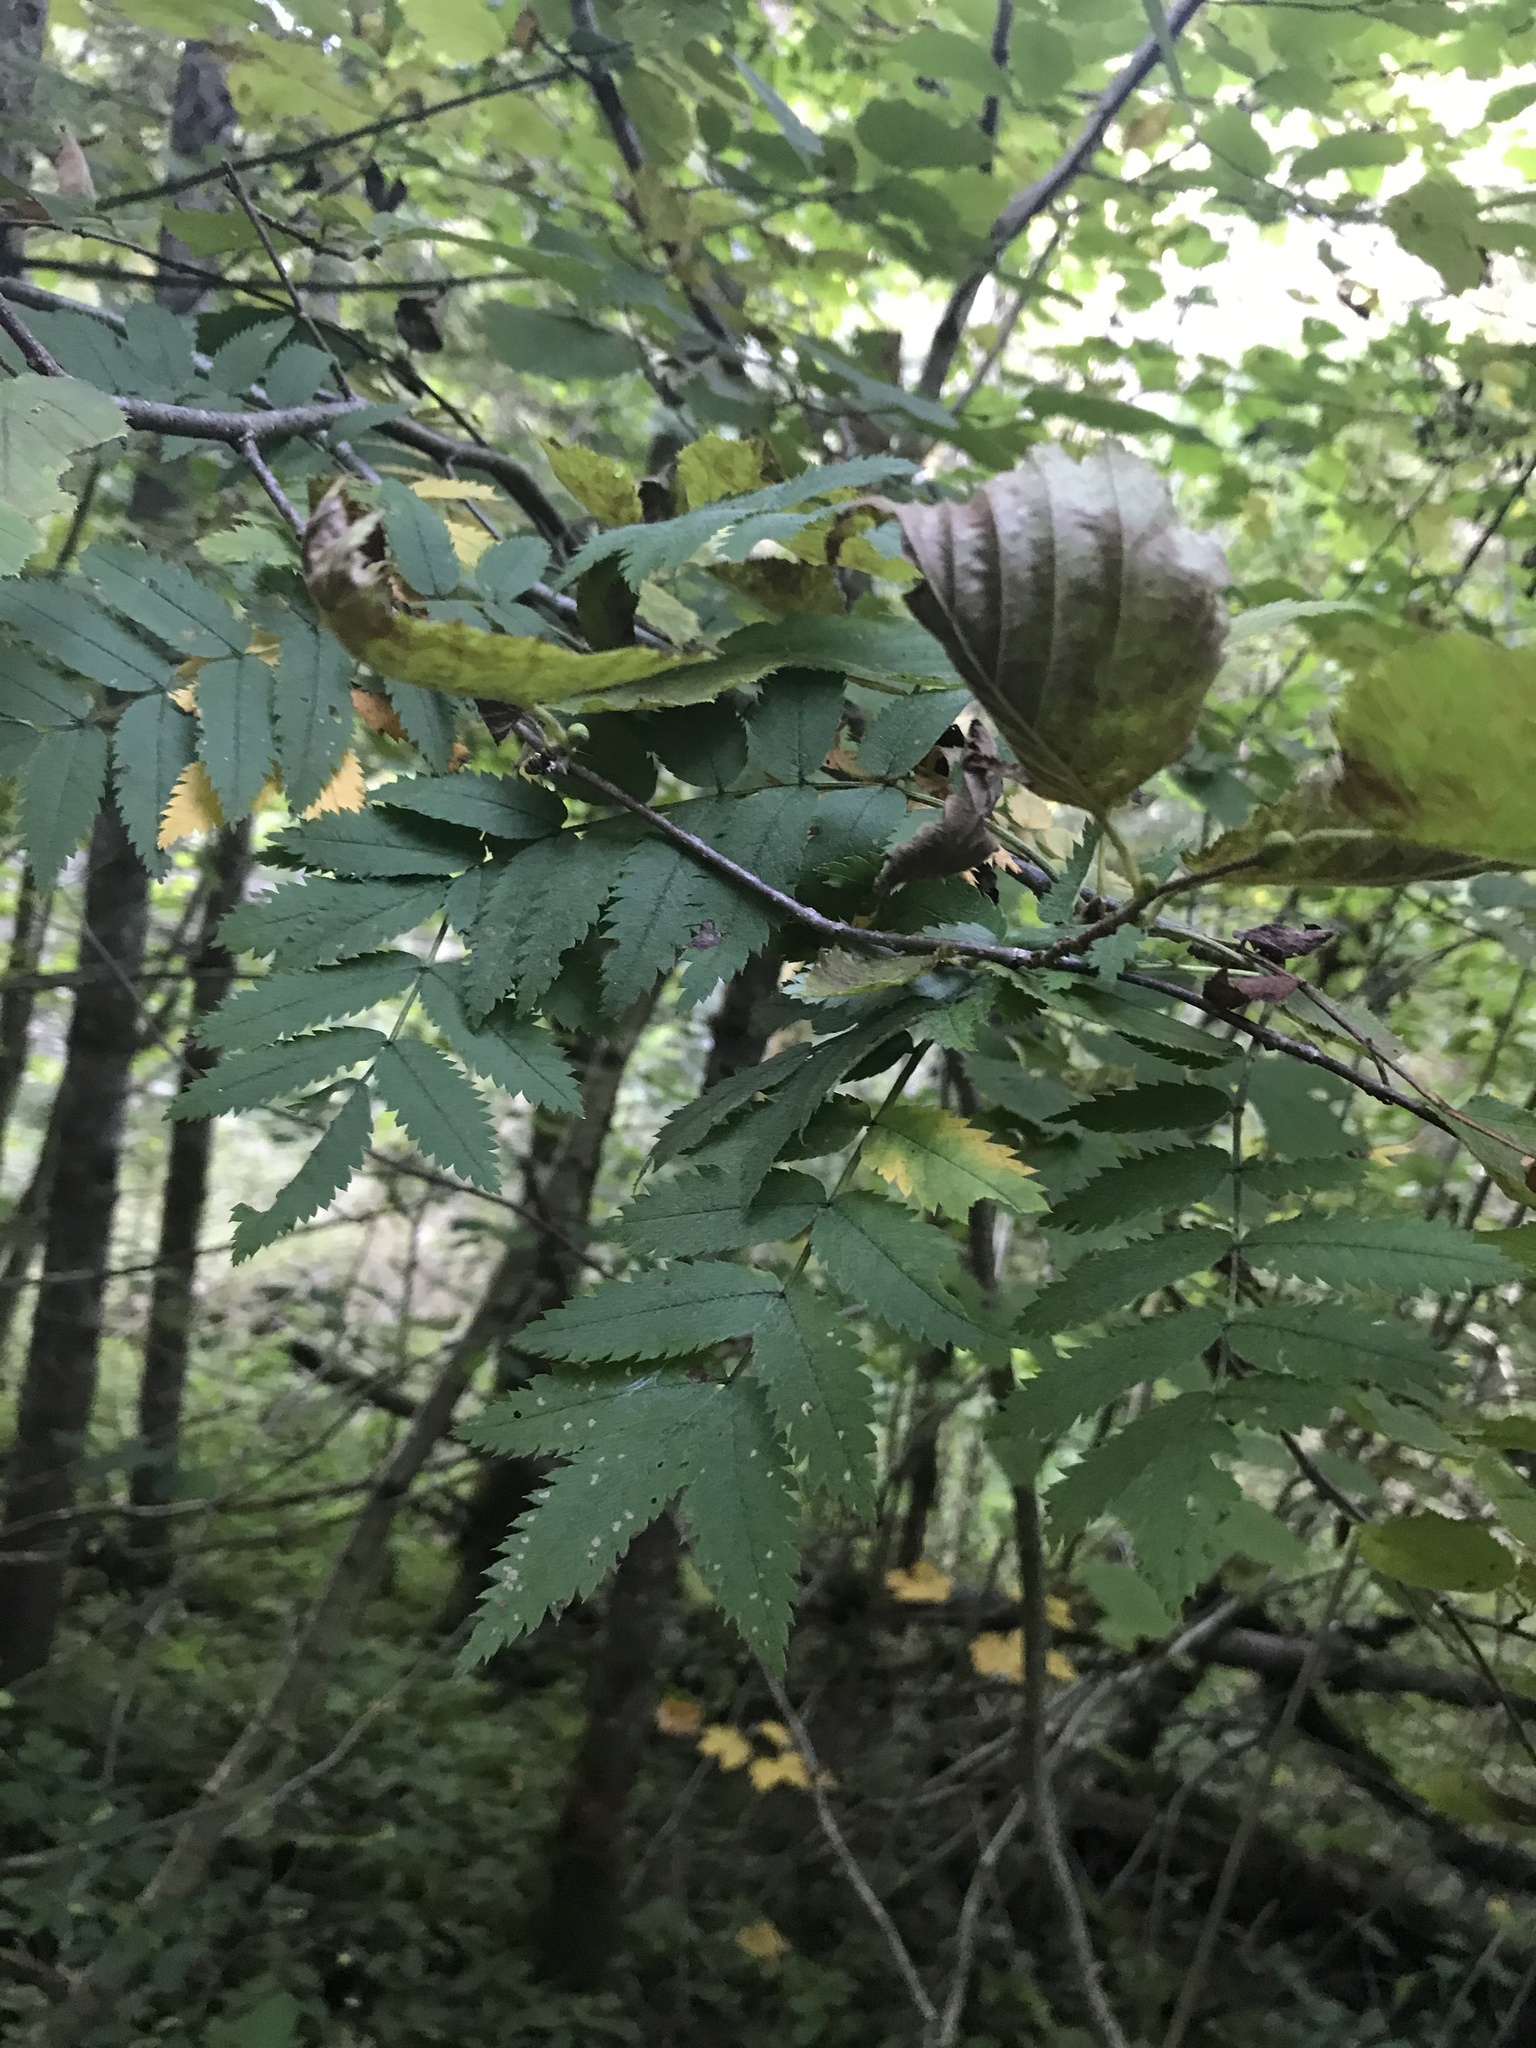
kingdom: Plantae
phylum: Tracheophyta
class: Magnoliopsida
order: Rosales
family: Rosaceae
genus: Sorbus
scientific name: Sorbus aucuparia
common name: Rowan
